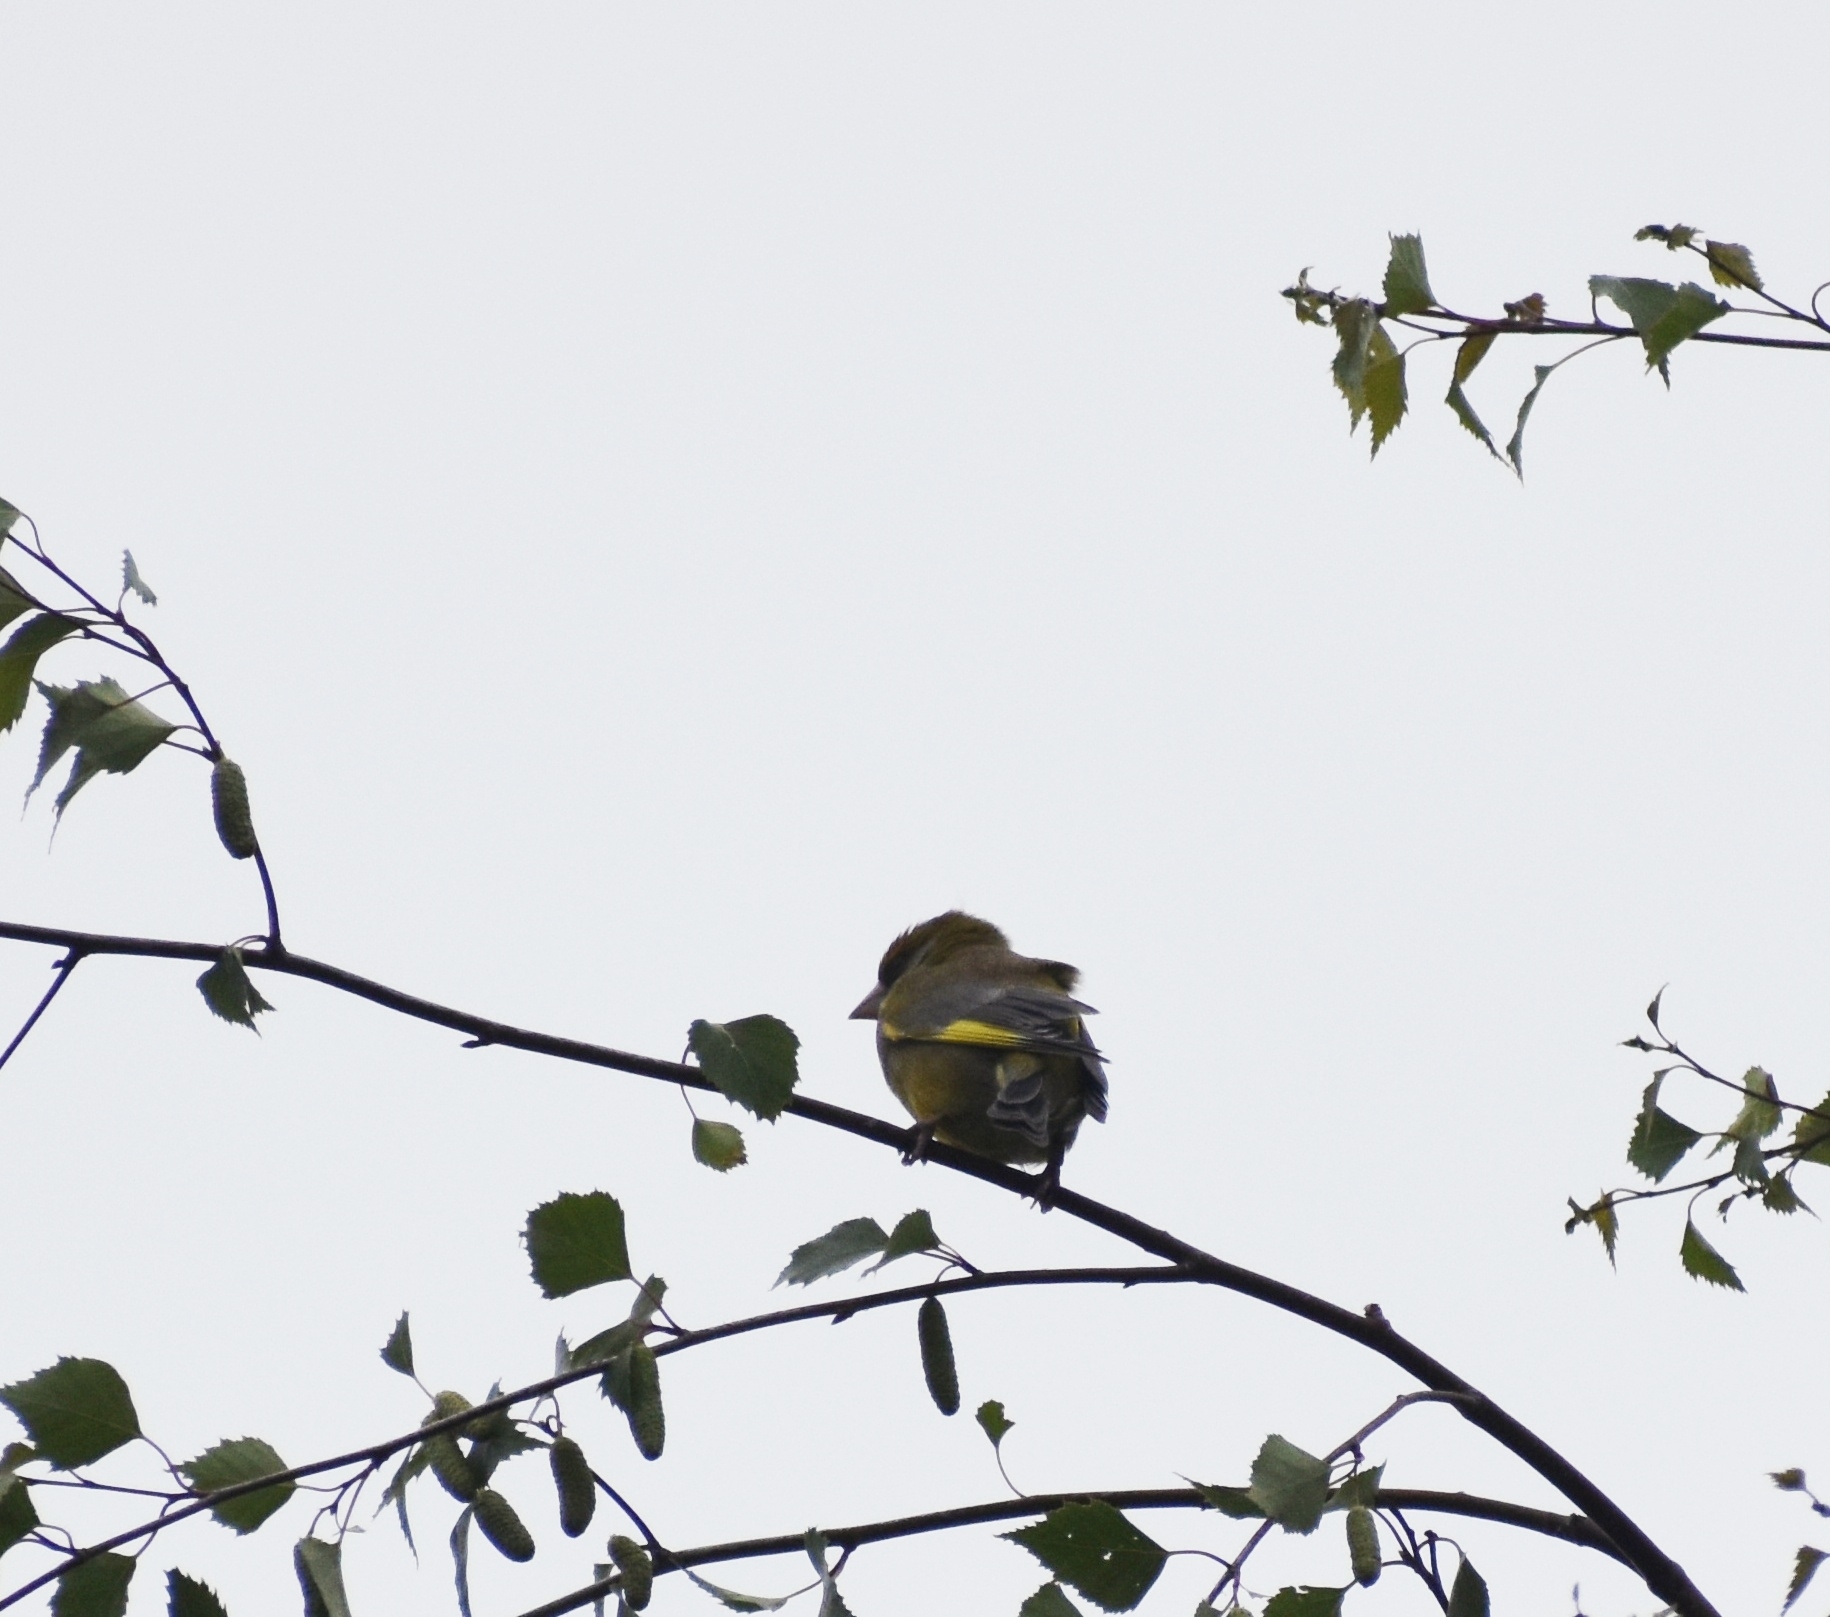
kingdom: Plantae
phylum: Tracheophyta
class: Liliopsida
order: Poales
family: Poaceae
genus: Chloris
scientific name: Chloris chloris
